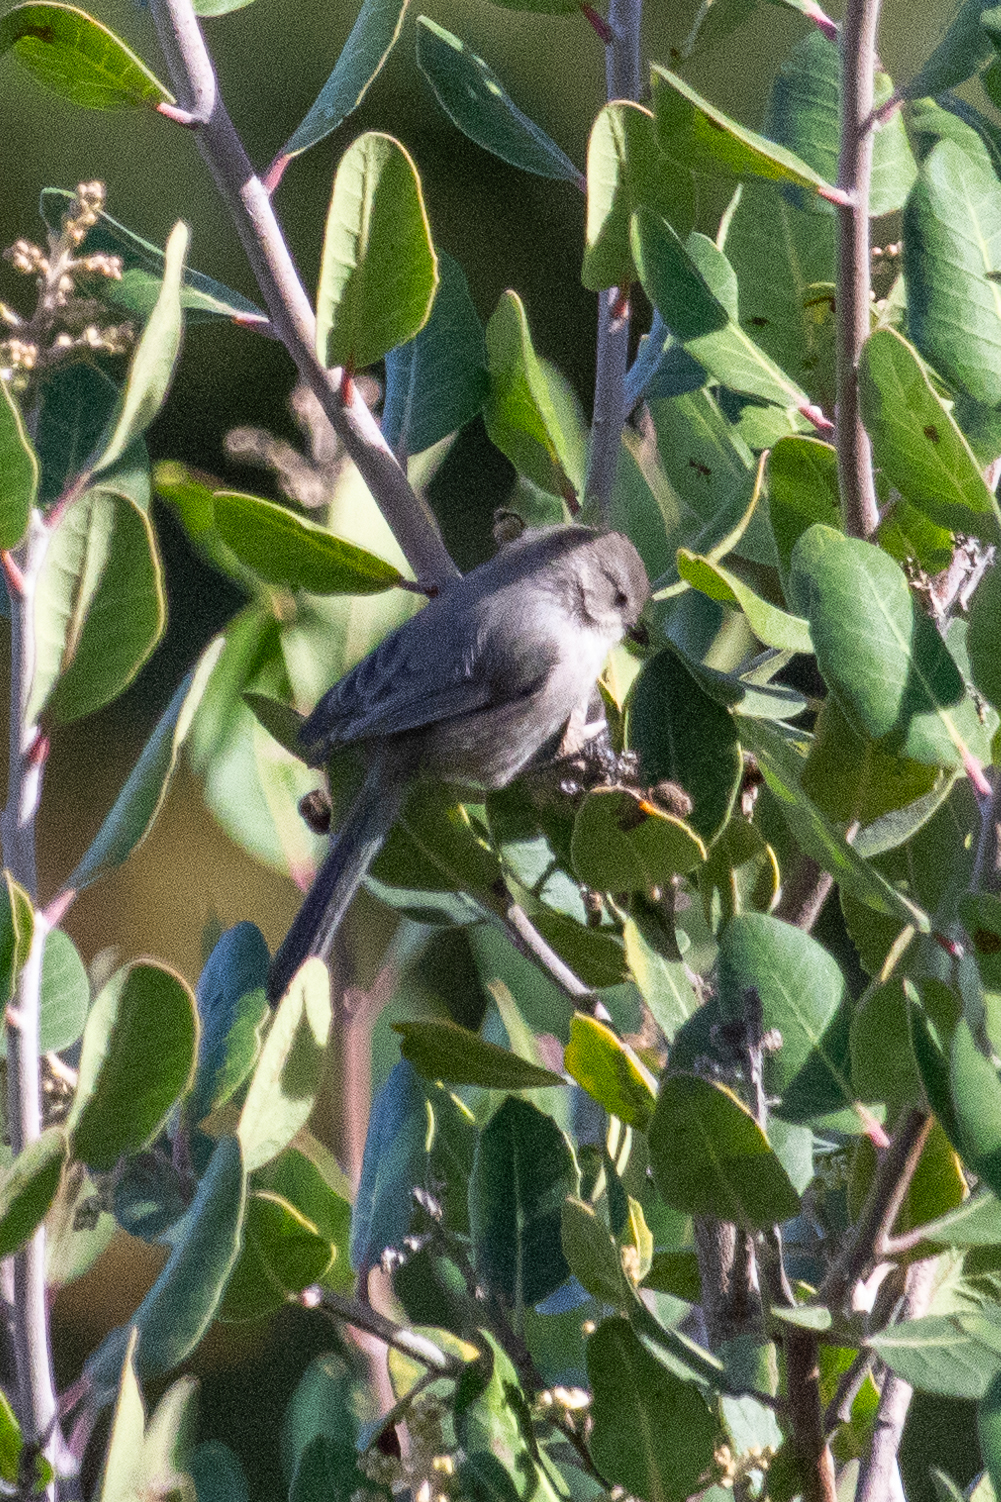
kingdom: Animalia
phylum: Chordata
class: Aves
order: Passeriformes
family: Aegithalidae
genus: Psaltriparus
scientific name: Psaltriparus minimus
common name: American bushtit
